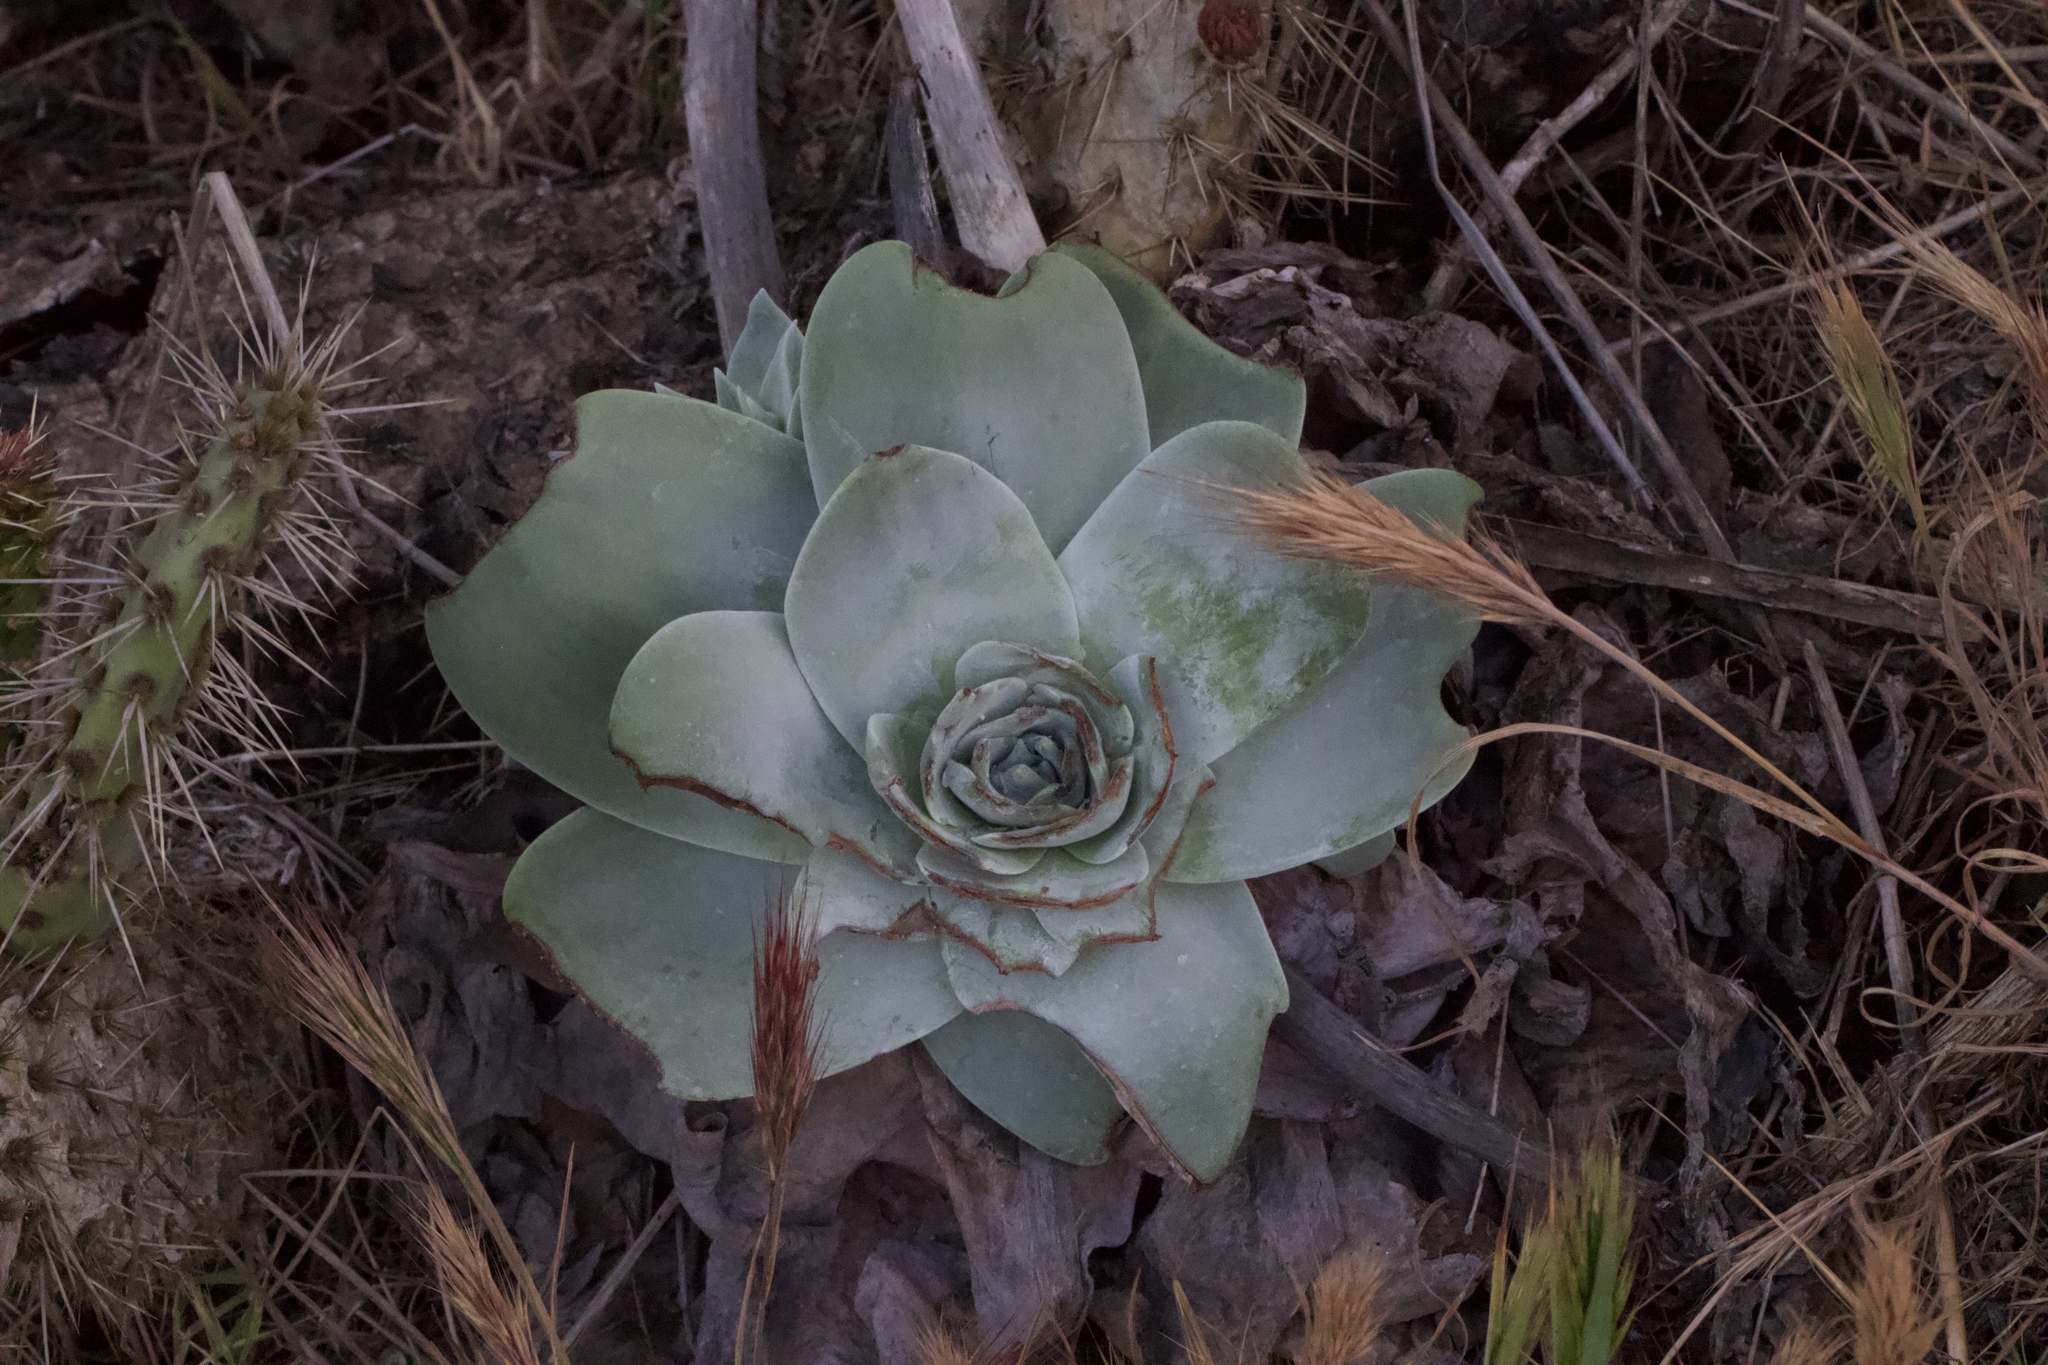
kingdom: Plantae
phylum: Tracheophyta
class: Magnoliopsida
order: Saxifragales
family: Crassulaceae
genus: Dudleya
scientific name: Dudleya pulverulenta
